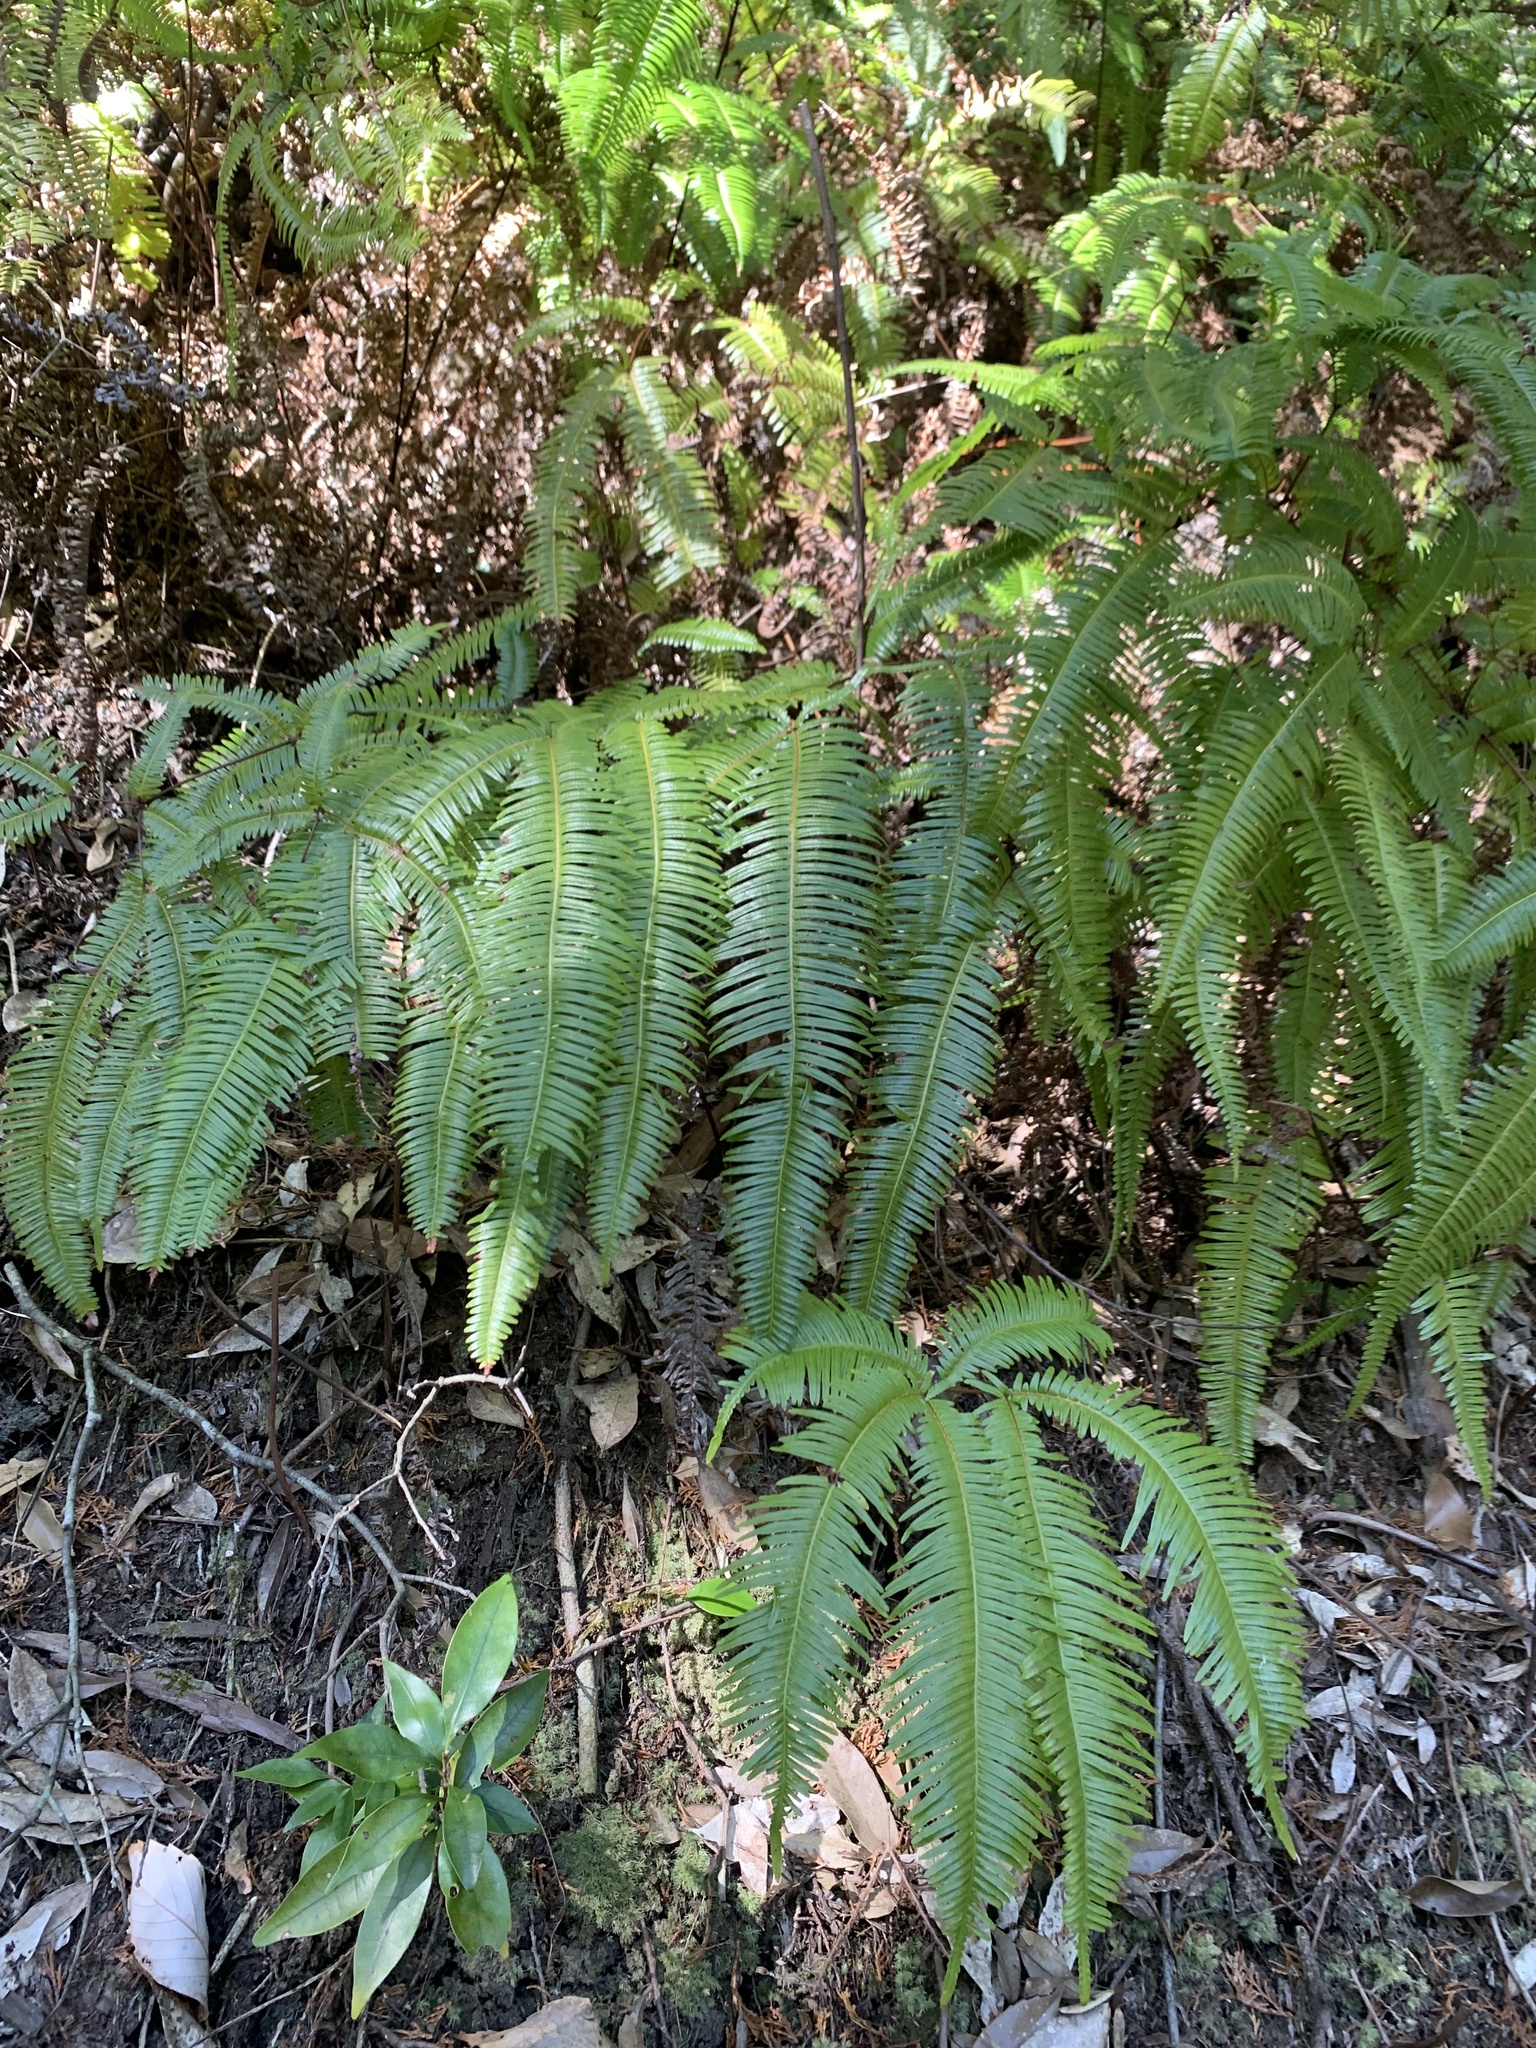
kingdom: Plantae
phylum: Tracheophyta
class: Polypodiopsida
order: Gleicheniales
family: Gleicheniaceae
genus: Dicranopteris
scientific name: Dicranopteris linearis
